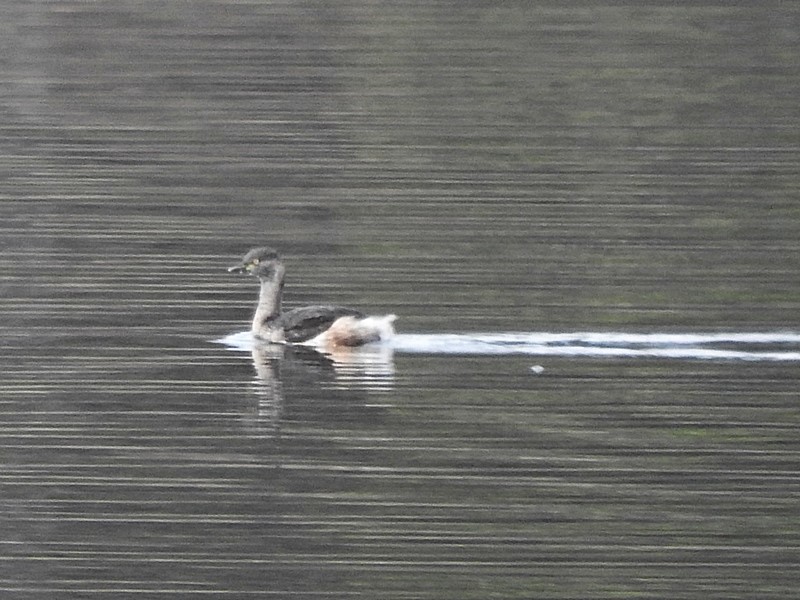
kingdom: Animalia
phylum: Chordata
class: Aves
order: Podicipediformes
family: Podicipedidae
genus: Tachybaptus
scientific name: Tachybaptus novaehollandiae
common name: Australasian grebe
